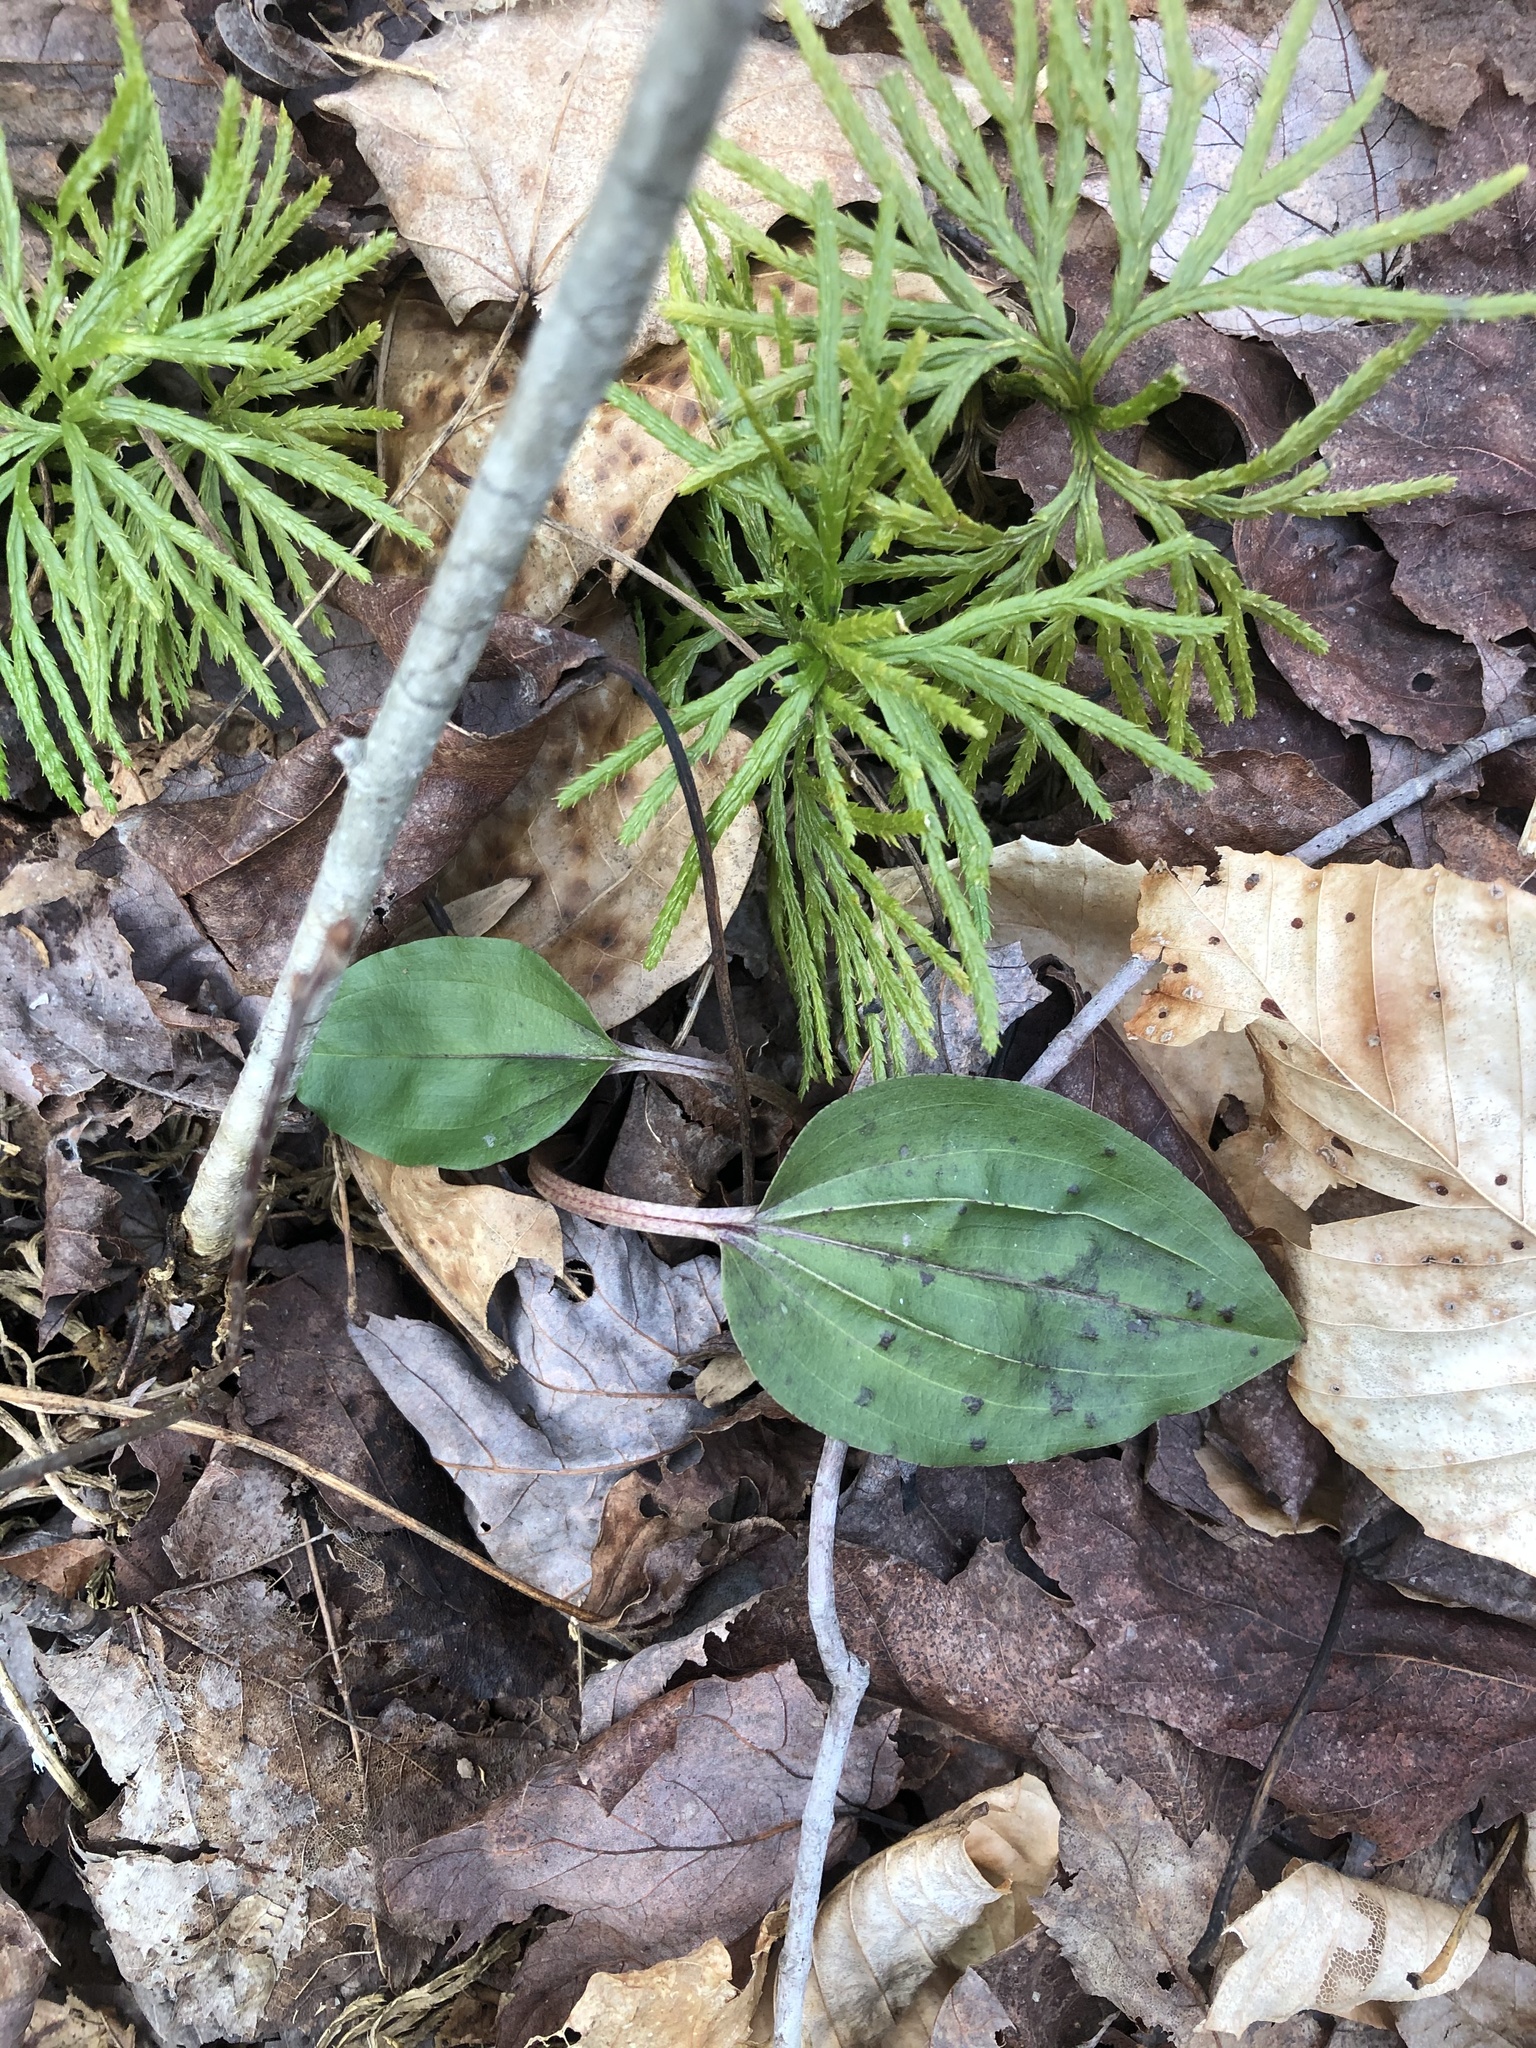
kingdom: Plantae
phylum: Tracheophyta
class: Liliopsida
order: Asparagales
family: Orchidaceae
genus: Tipularia
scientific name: Tipularia discolor
